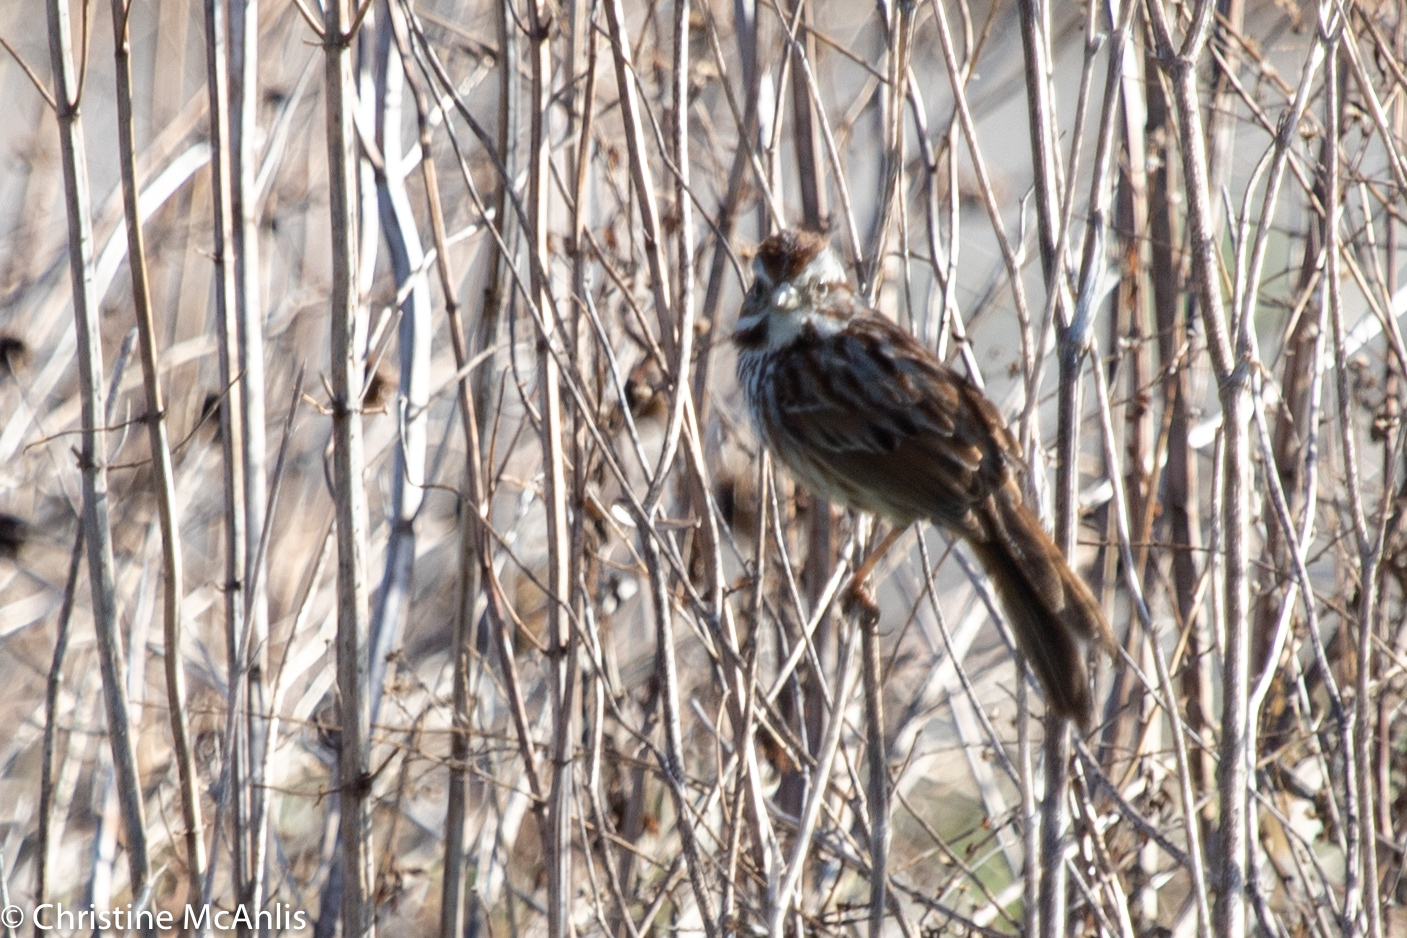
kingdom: Animalia
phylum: Chordata
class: Aves
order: Passeriformes
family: Passerellidae
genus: Melospiza
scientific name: Melospiza melodia
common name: Song sparrow
